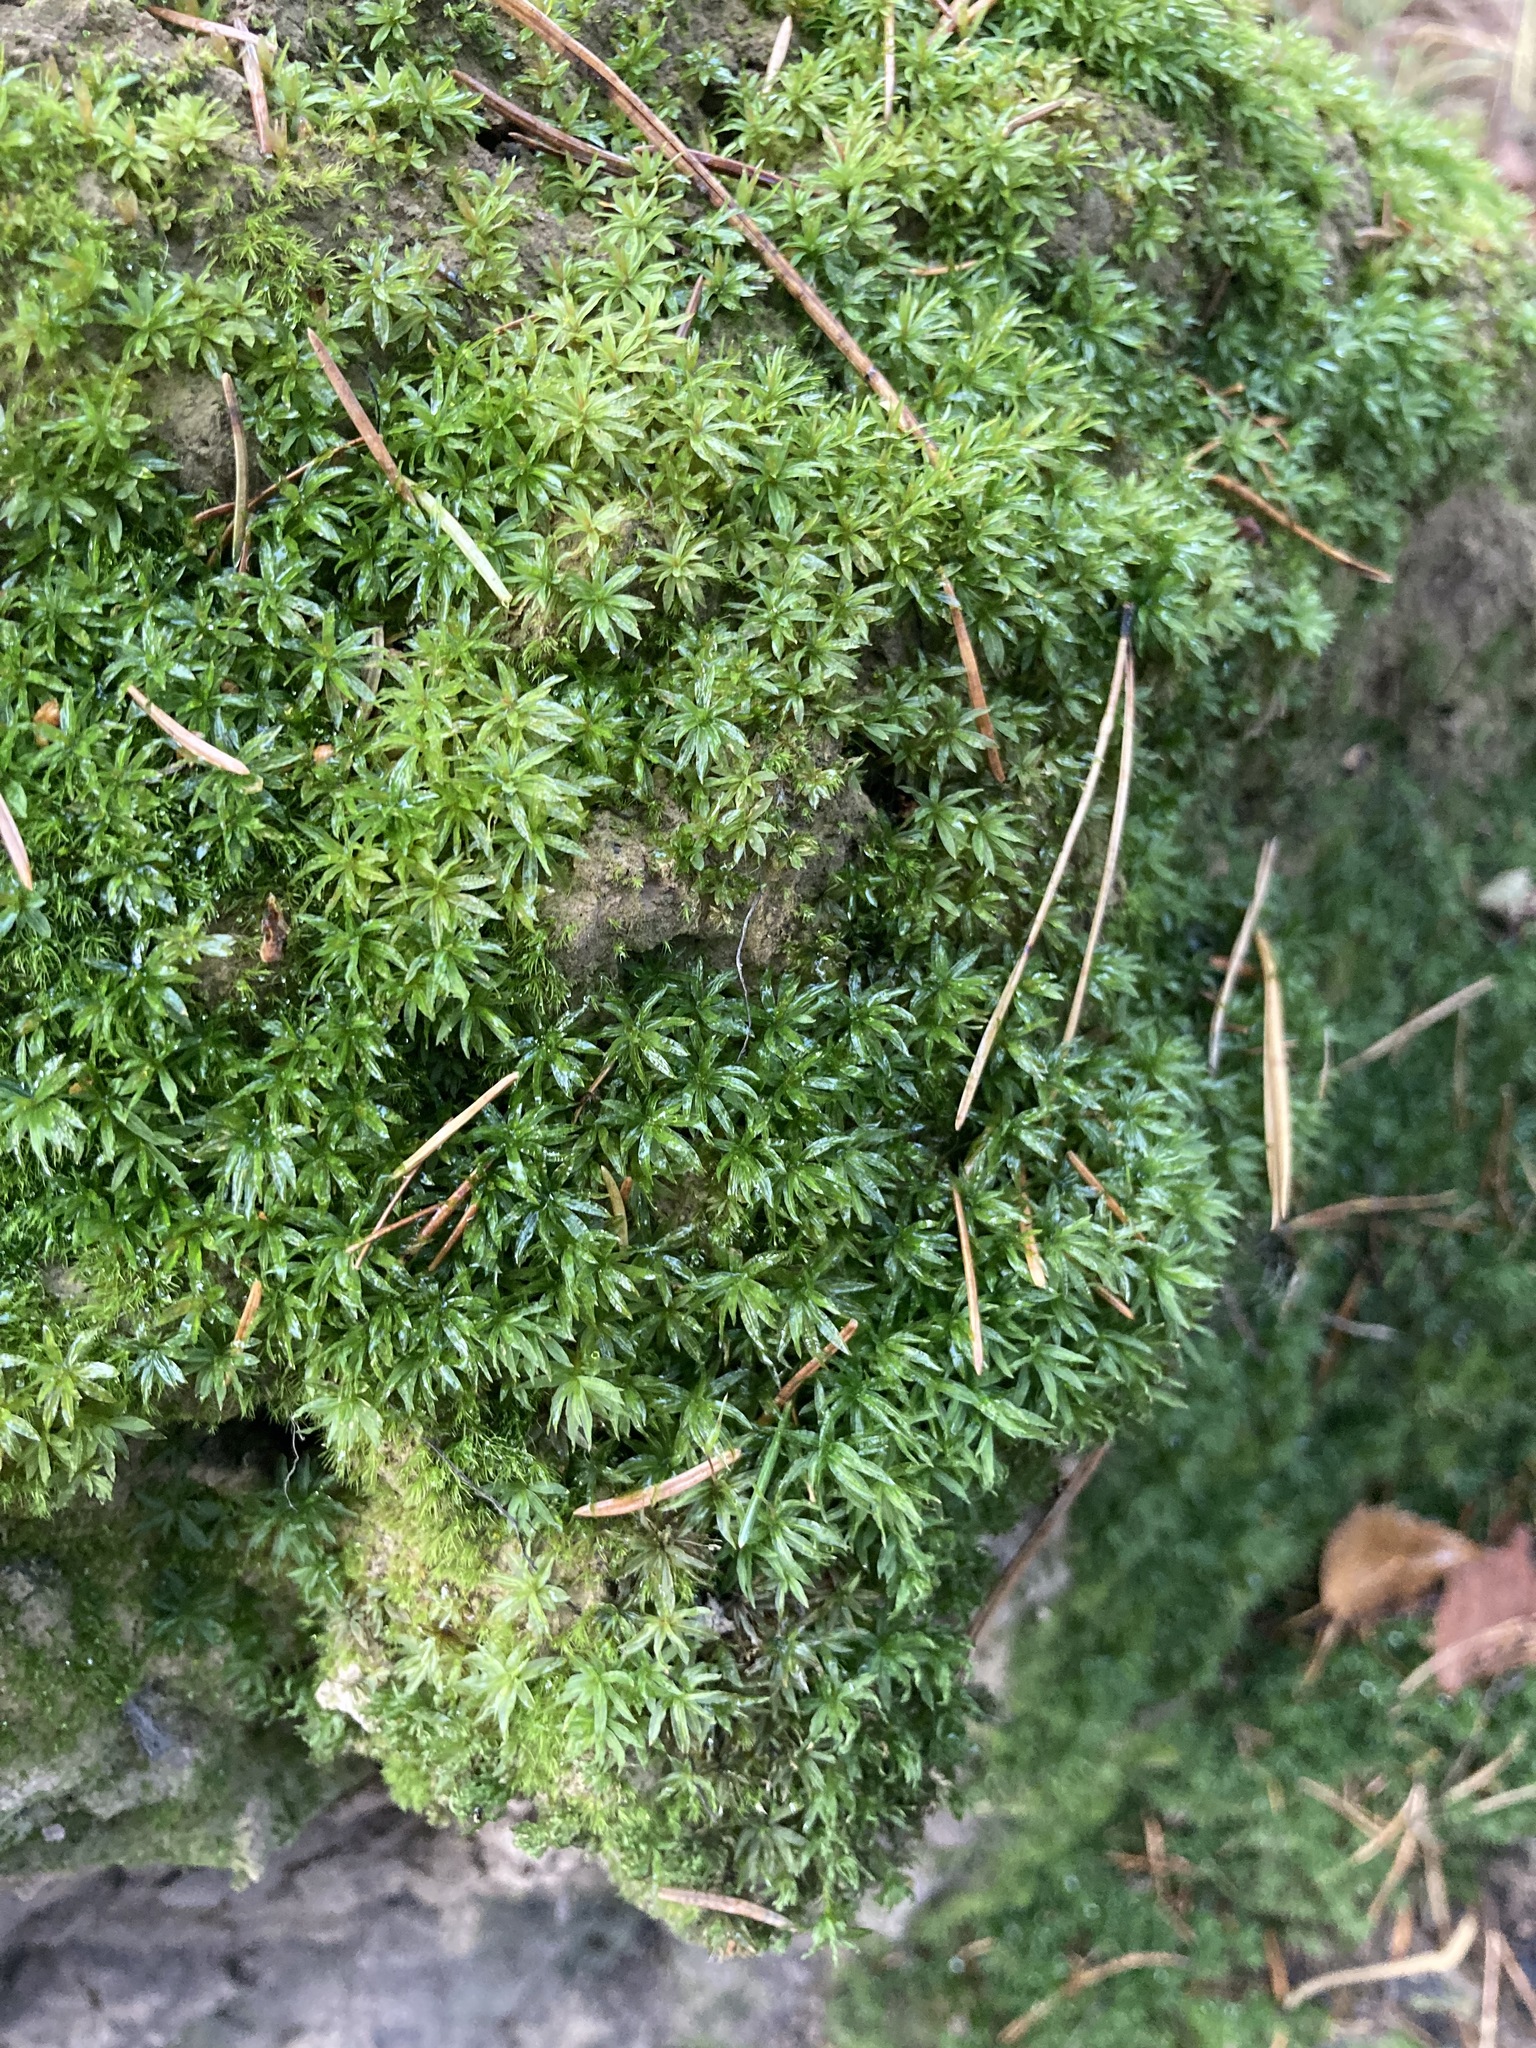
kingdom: Plantae
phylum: Bryophyta
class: Polytrichopsida
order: Polytrichales
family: Polytrichaceae
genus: Atrichum
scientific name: Atrichum undulatum
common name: Common smoothcap
